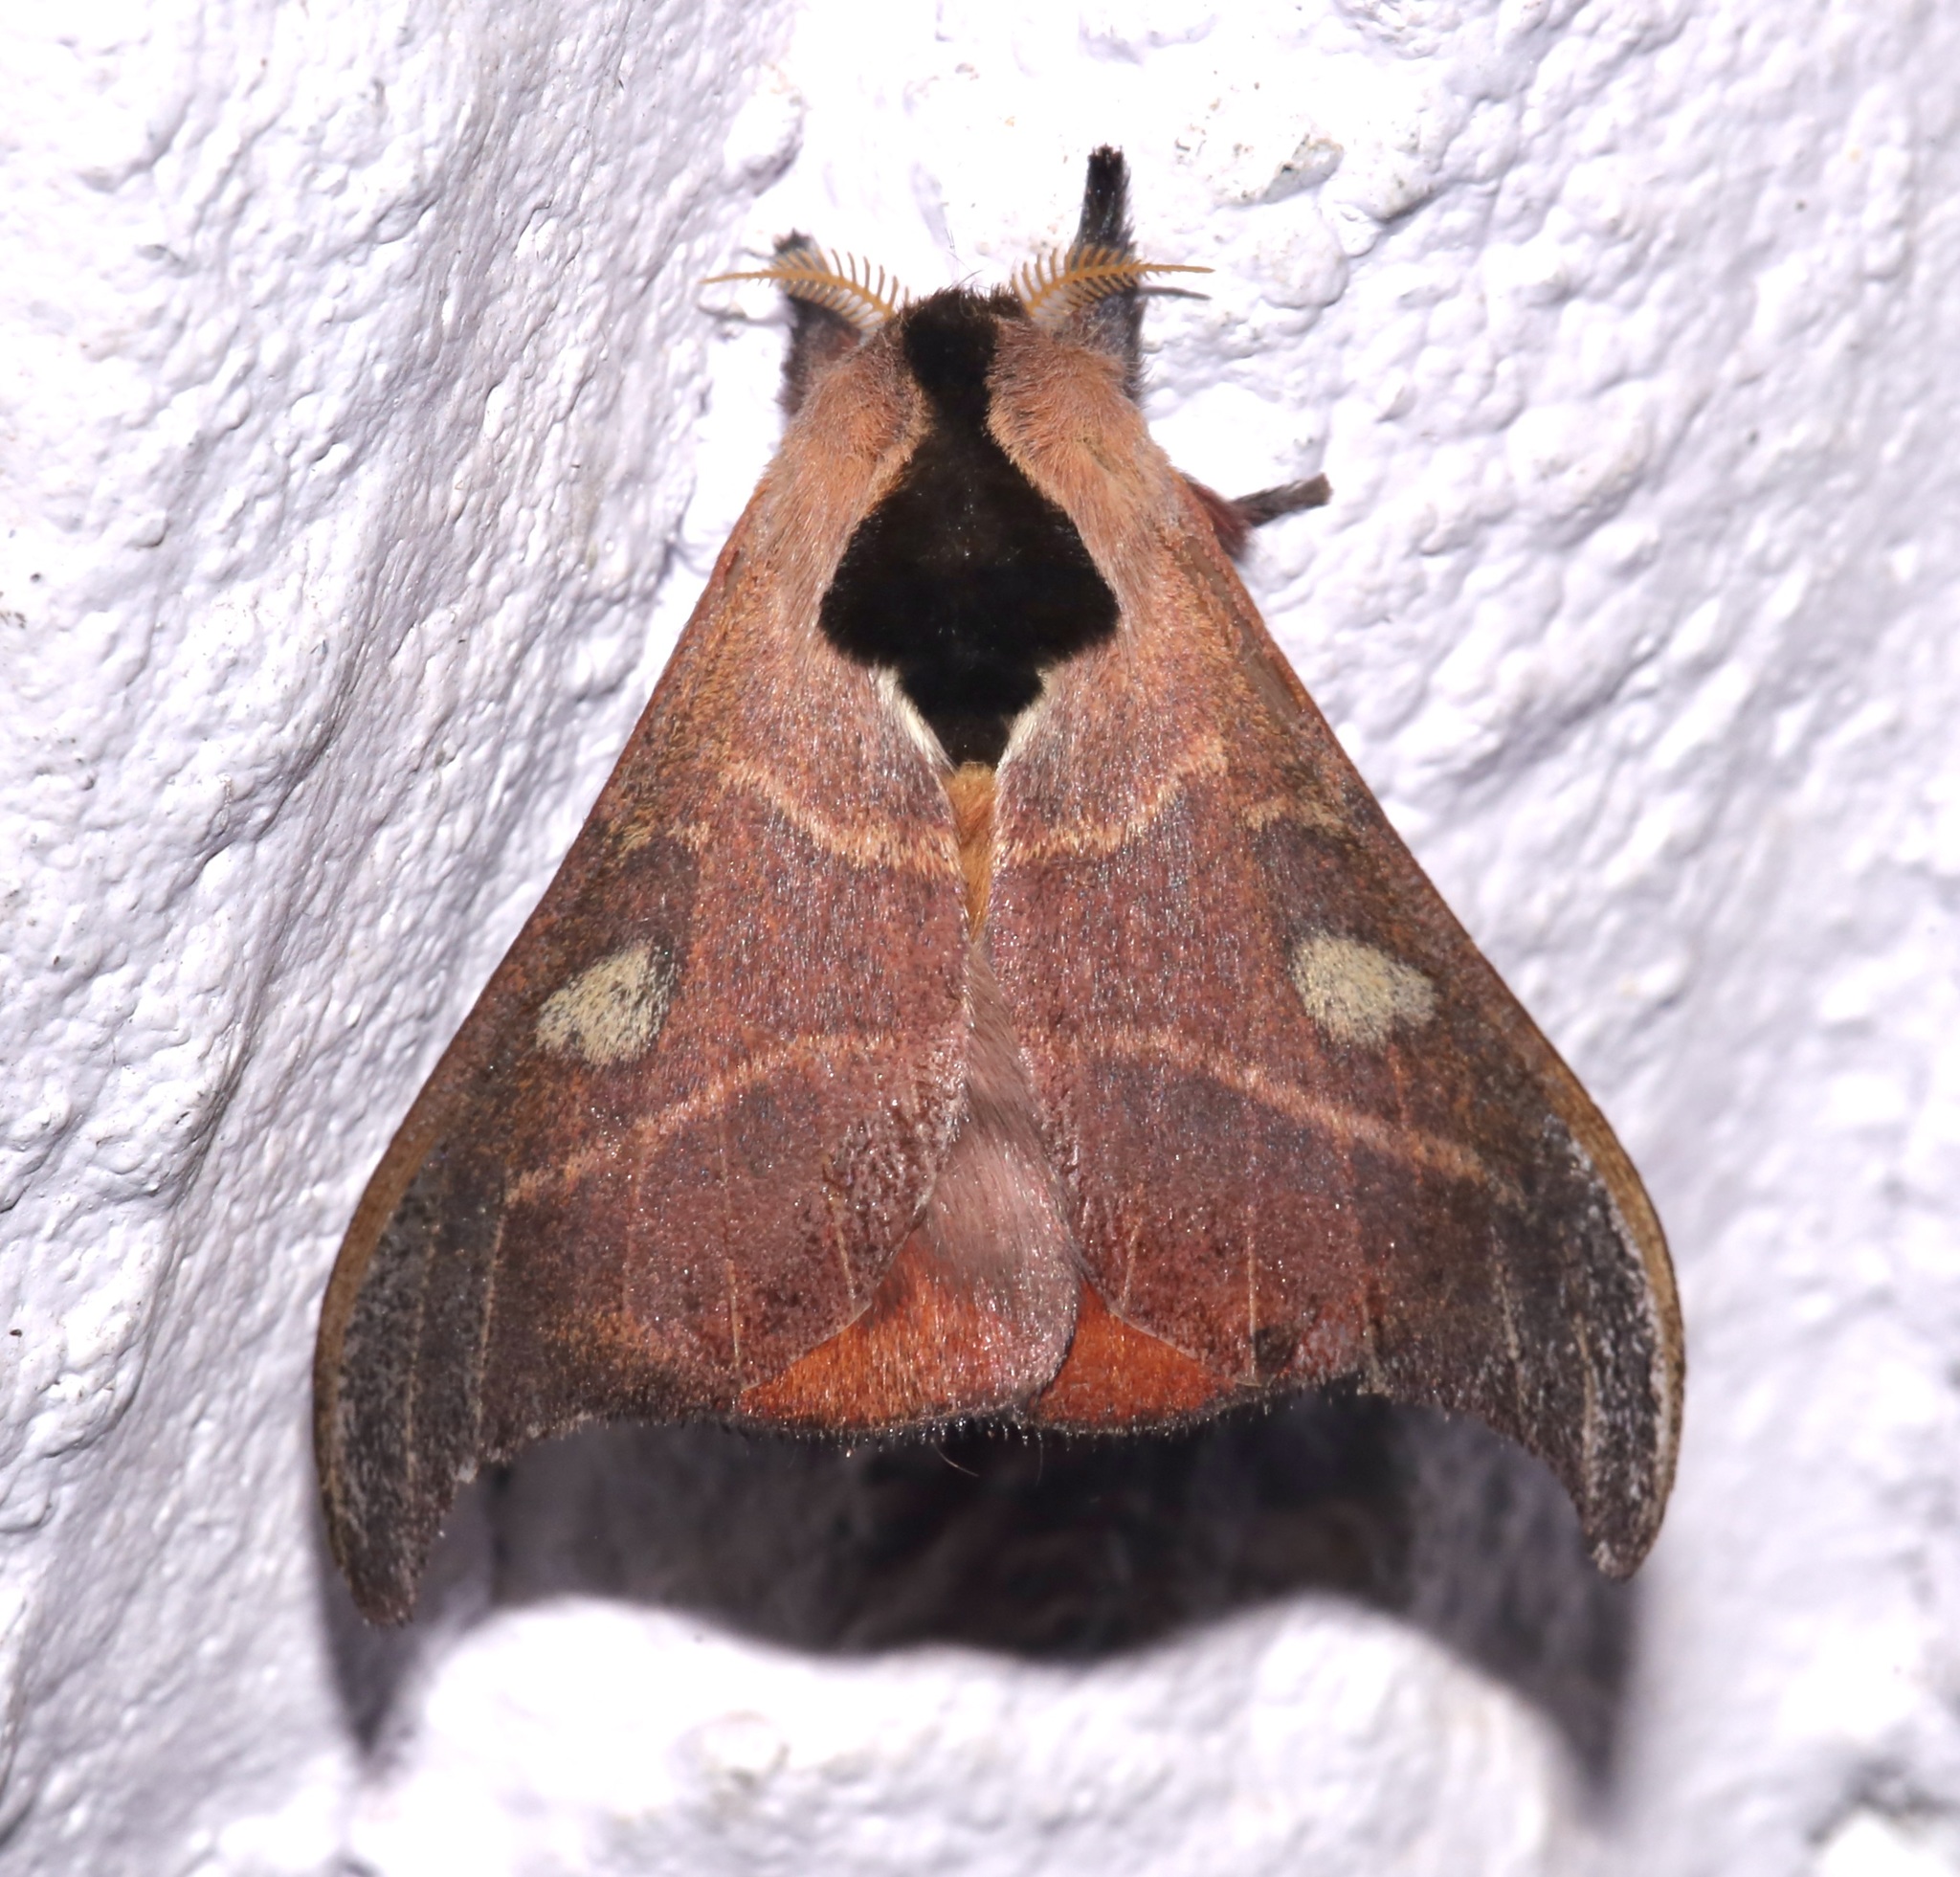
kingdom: Animalia
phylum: Arthropoda
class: Insecta
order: Lepidoptera
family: Saturniidae
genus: Hylesia
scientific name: Hylesia nanus
